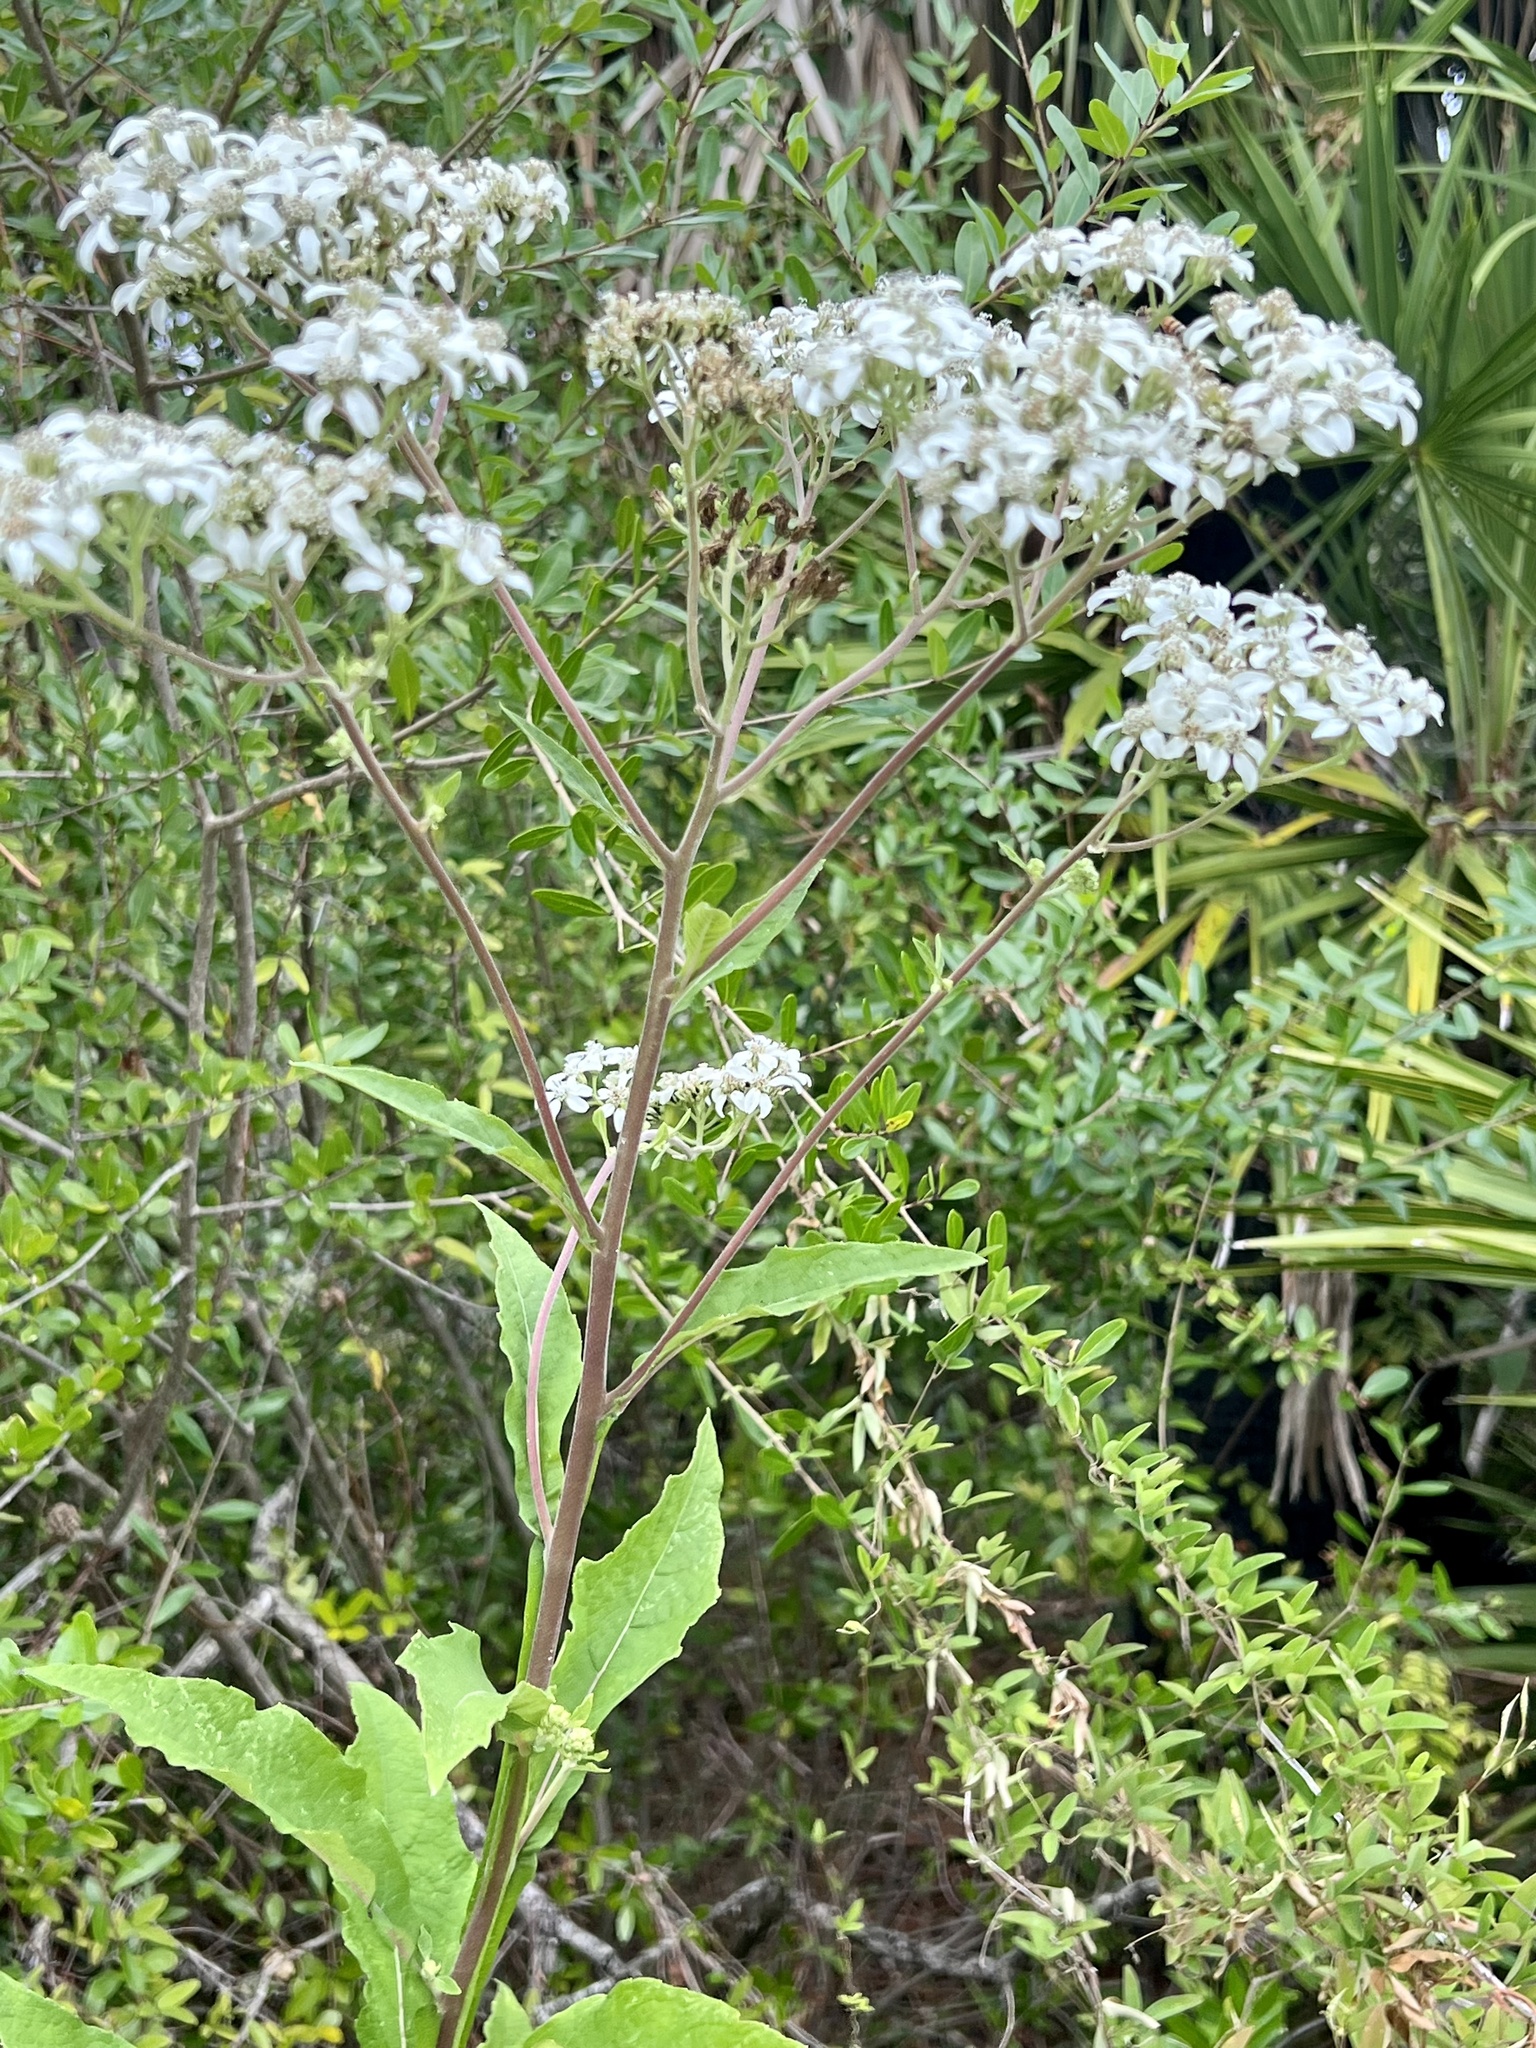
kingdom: Plantae
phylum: Tracheophyta
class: Magnoliopsida
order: Asterales
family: Asteraceae
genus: Verbesina
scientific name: Verbesina virginica
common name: Frostweed
